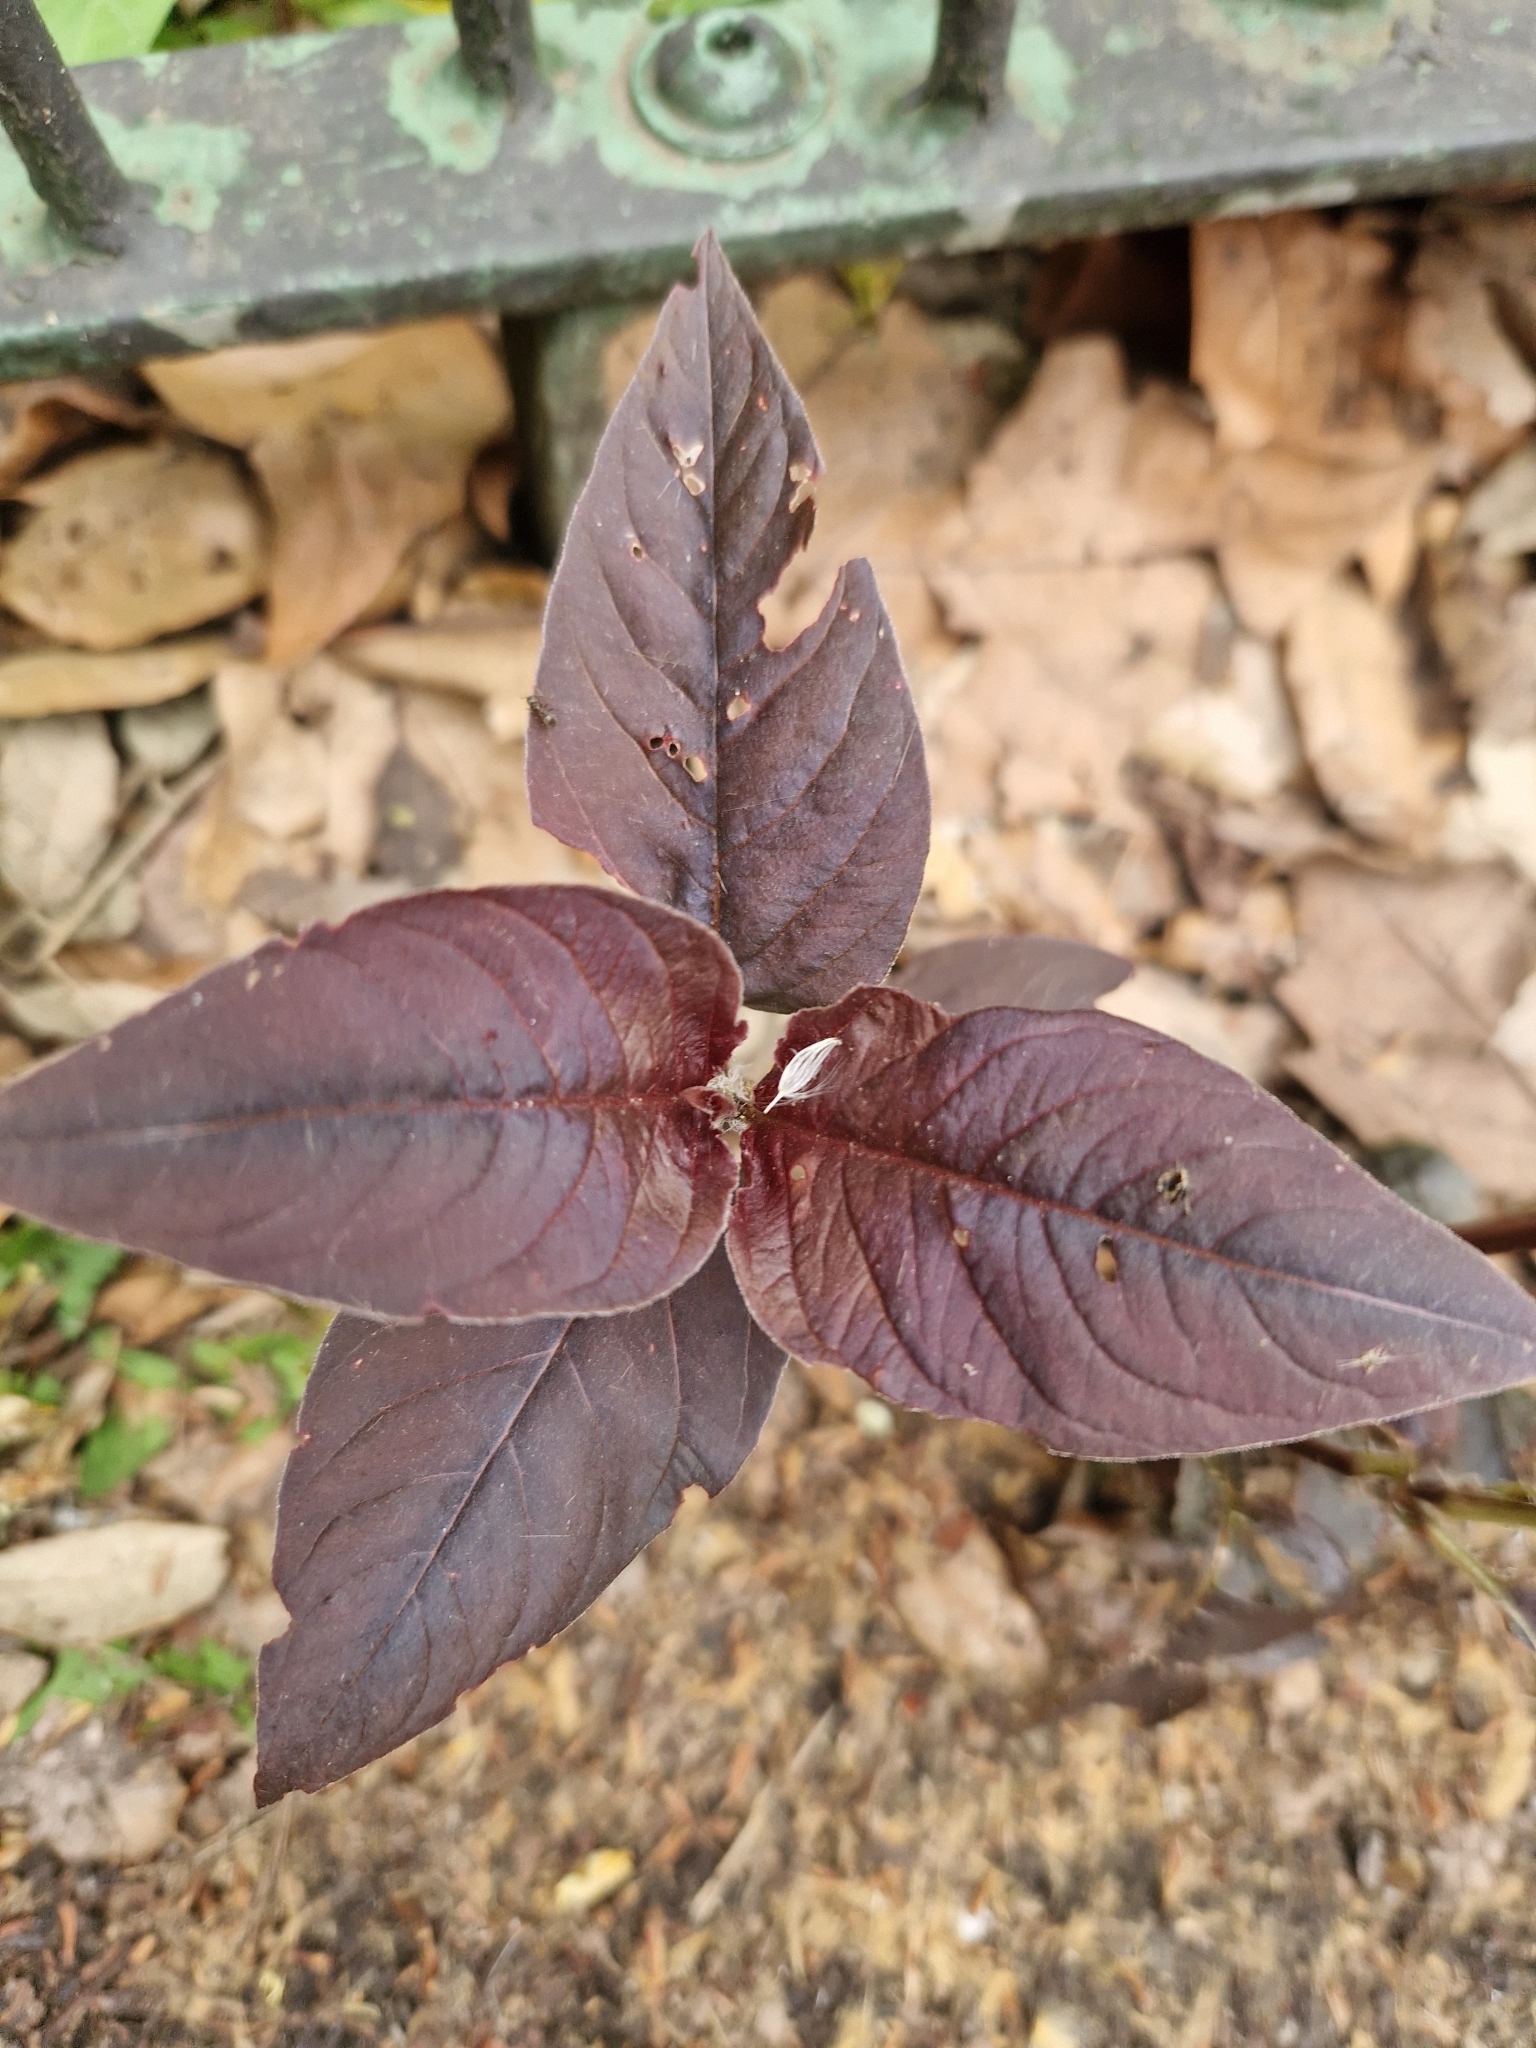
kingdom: Plantae
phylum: Tracheophyta
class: Magnoliopsida
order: Ericales
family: Primulaceae
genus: Lysimachia
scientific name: Lysimachia ciliata
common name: Fringed loosestrife
